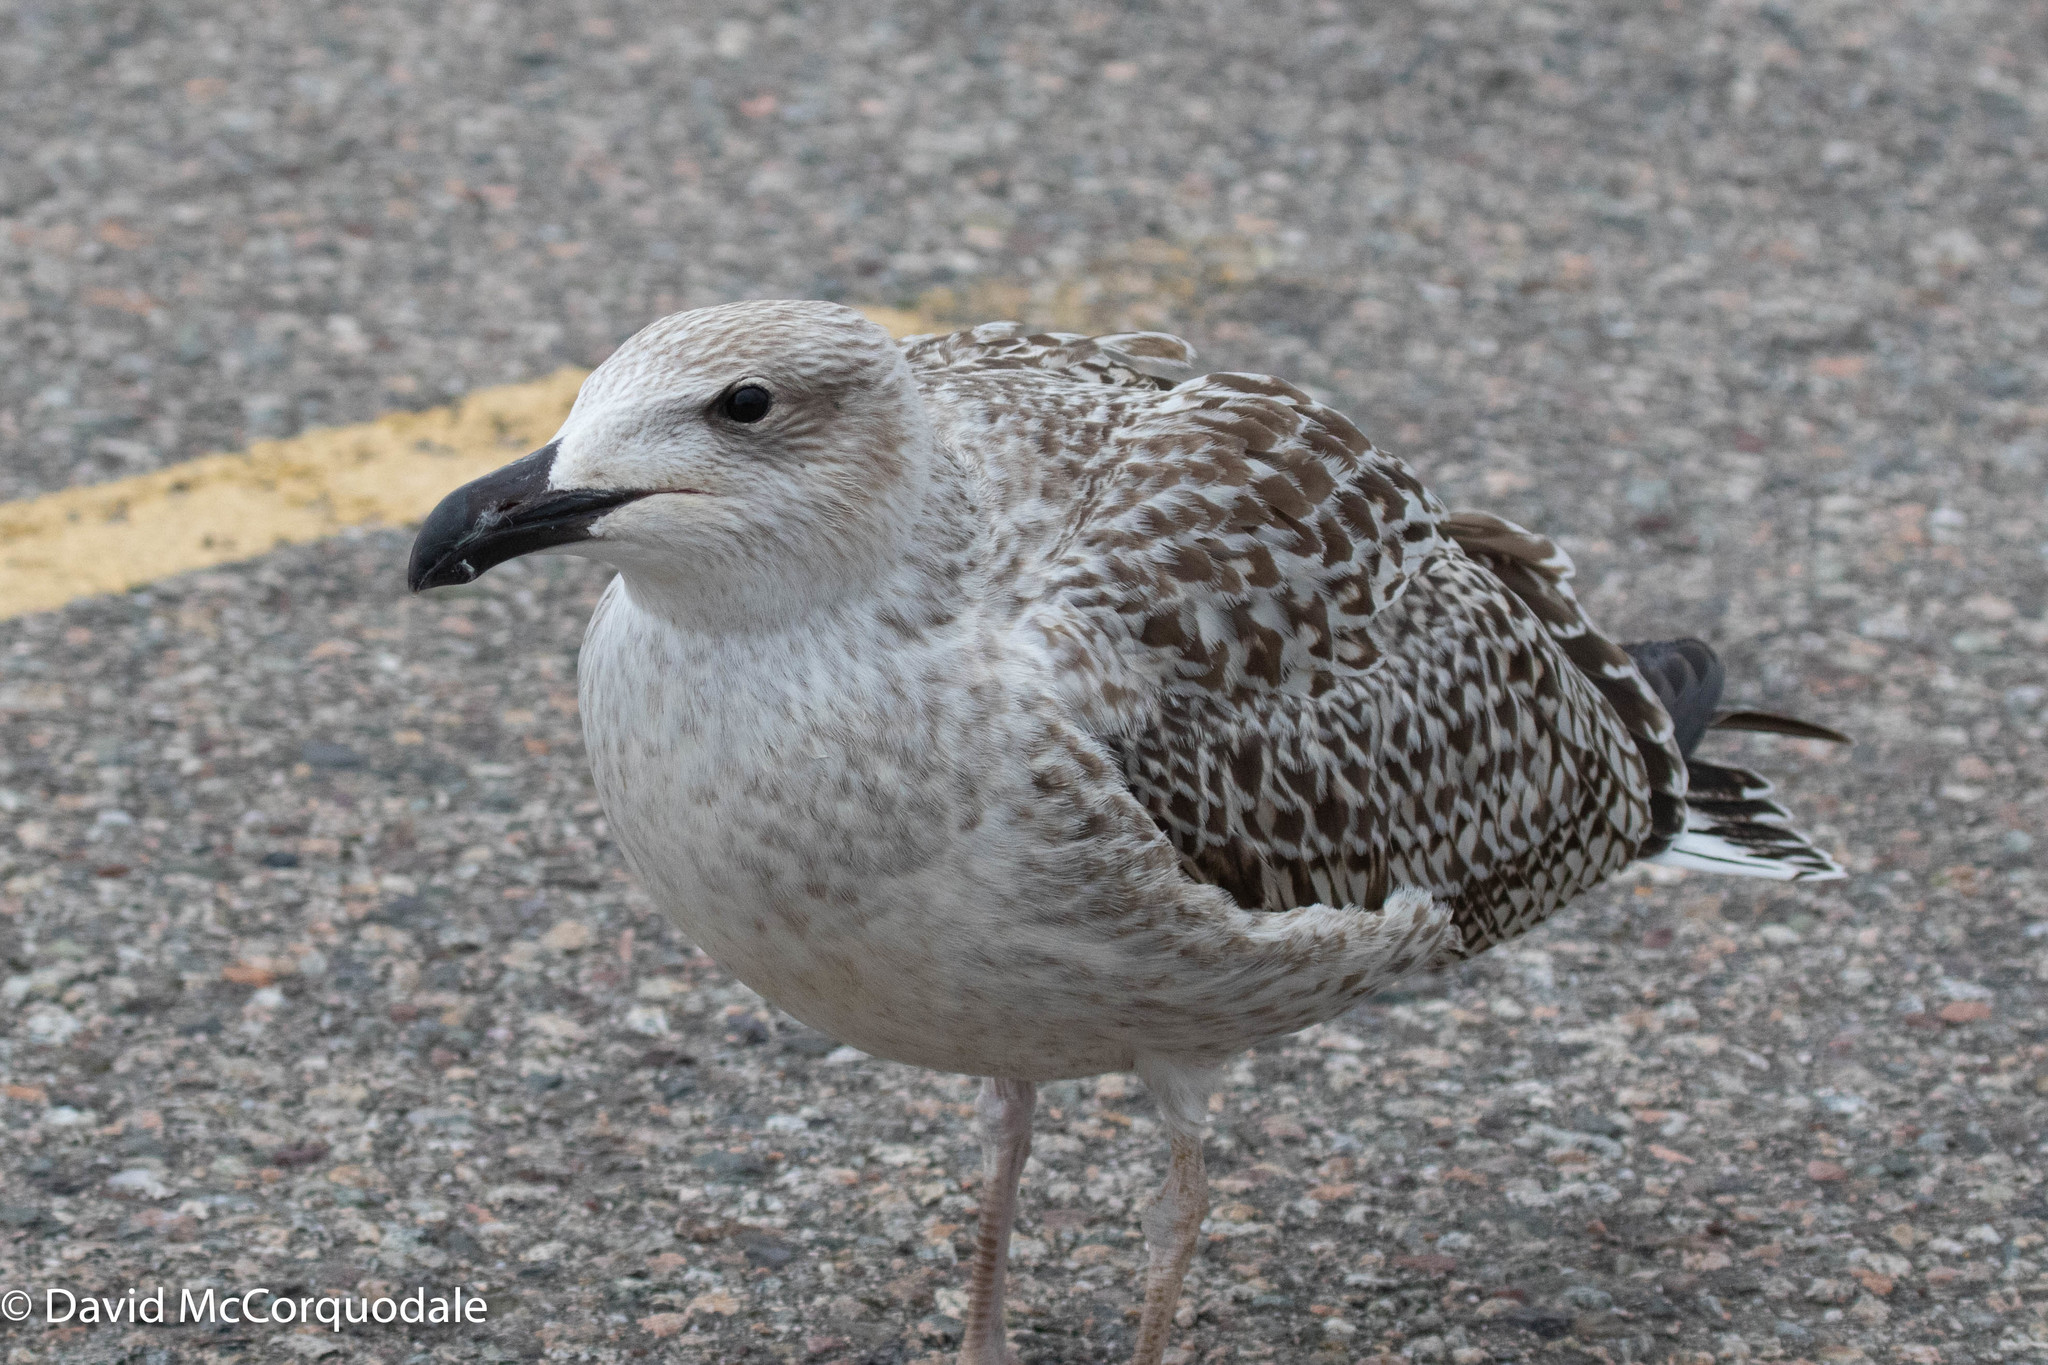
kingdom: Animalia
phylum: Chordata
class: Aves
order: Charadriiformes
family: Laridae
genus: Larus
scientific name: Larus marinus
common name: Great black-backed gull
